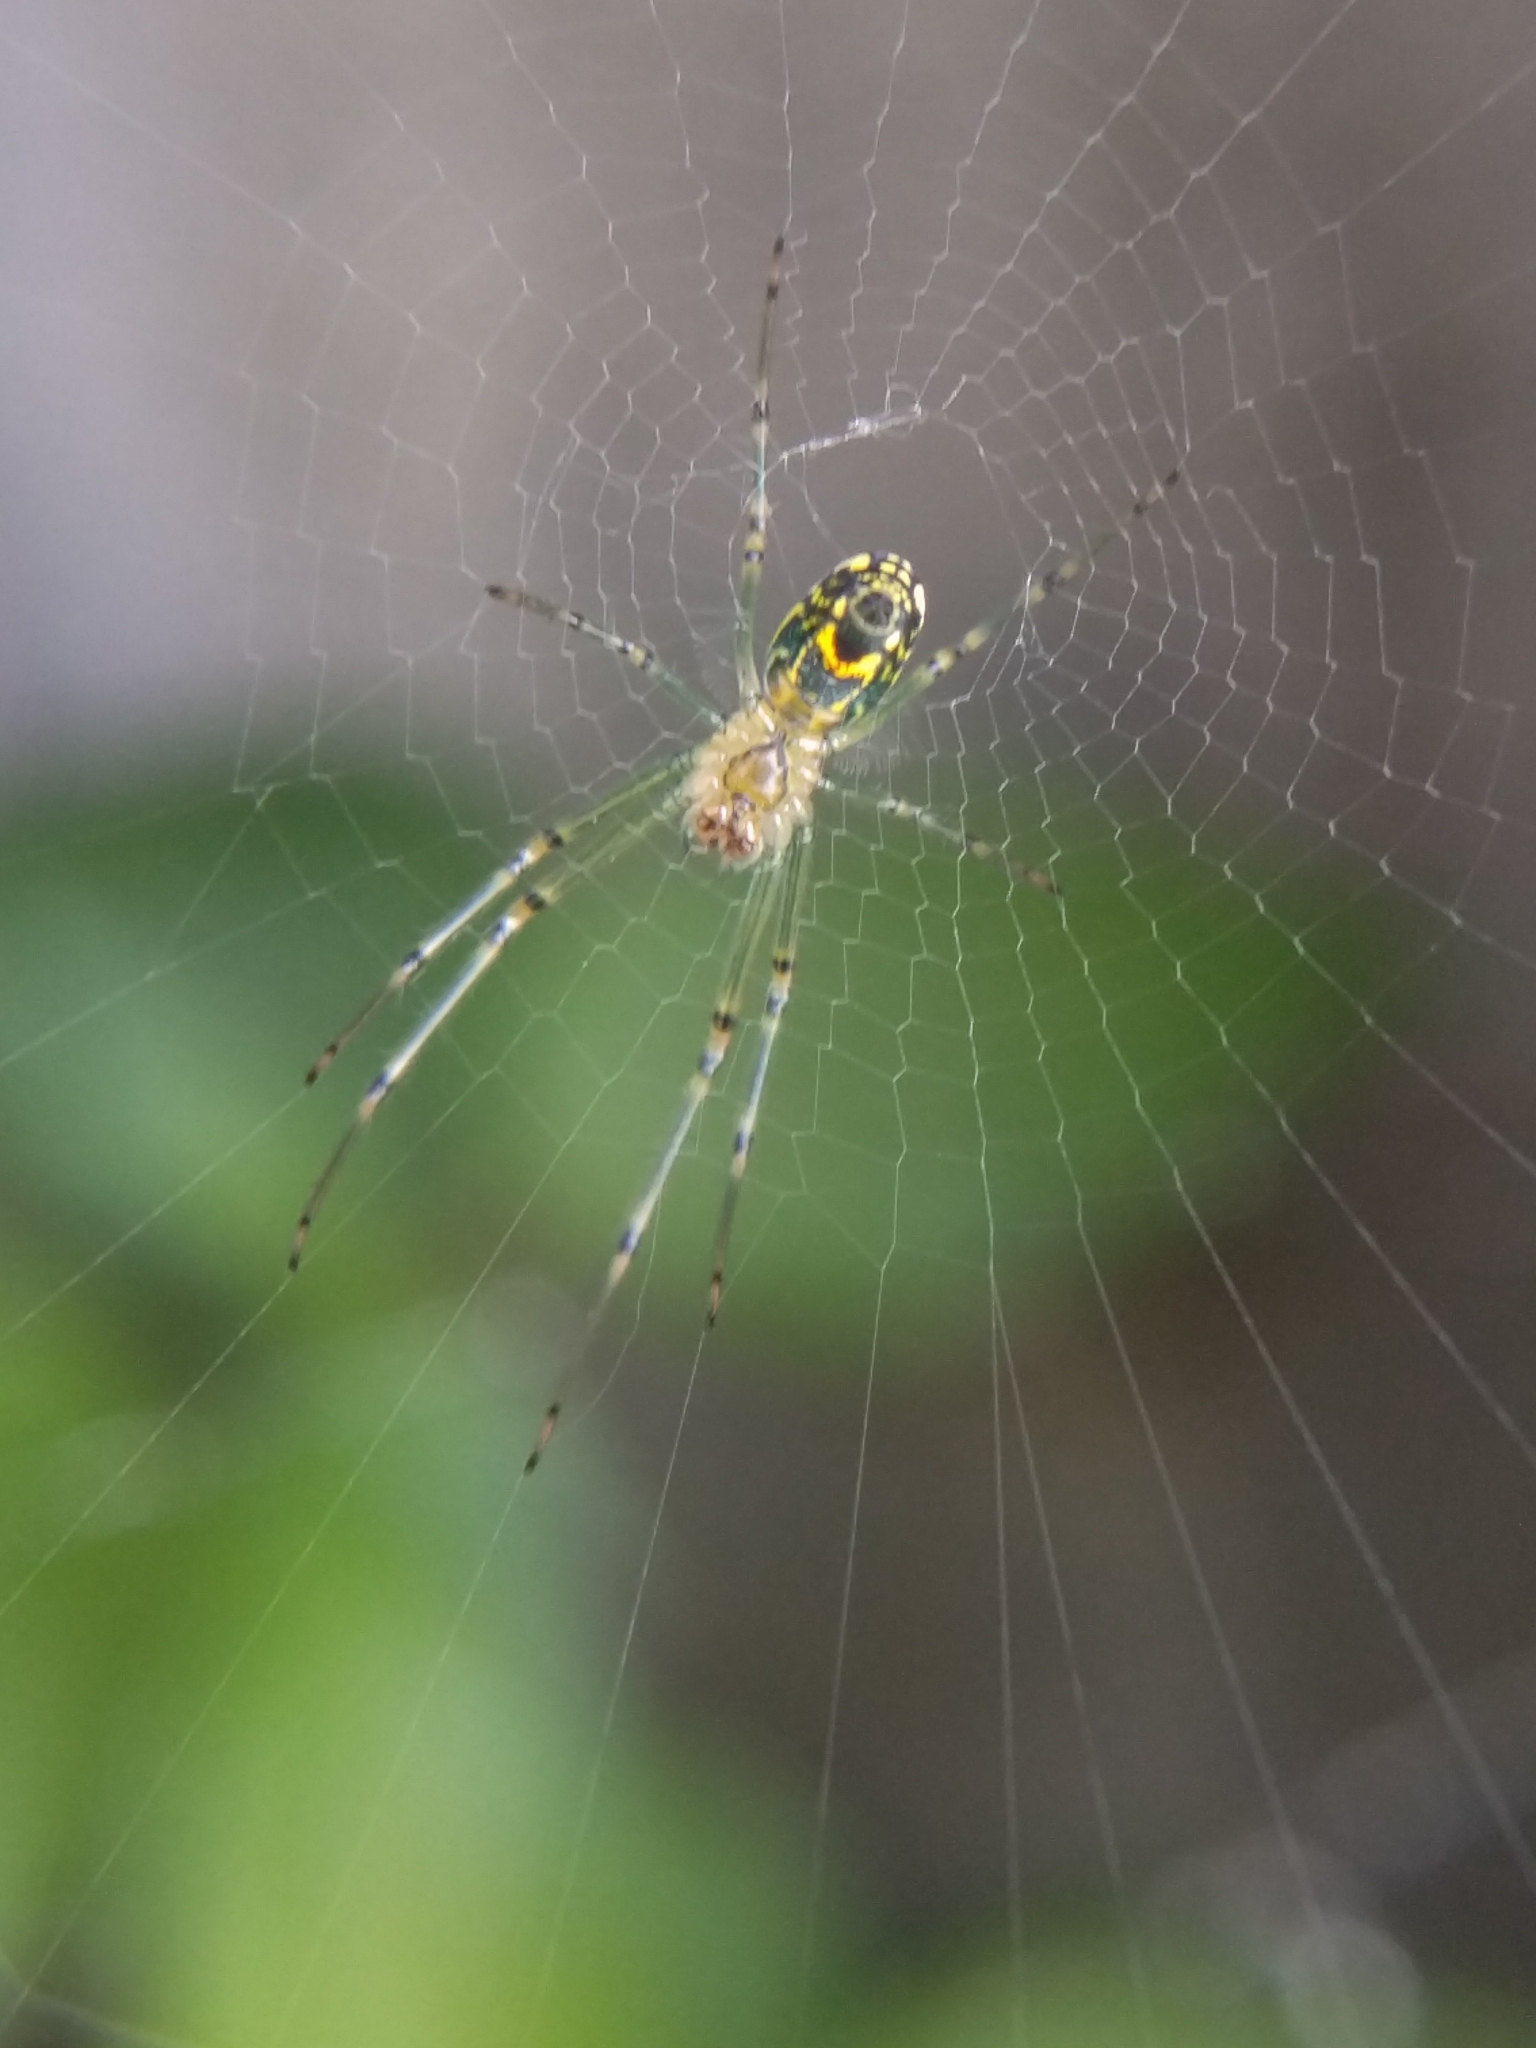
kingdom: Animalia
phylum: Arthropoda
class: Arachnida
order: Araneae
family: Tetragnathidae
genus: Leucauge
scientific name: Leucauge venusta
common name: Longjawed orb weavers
